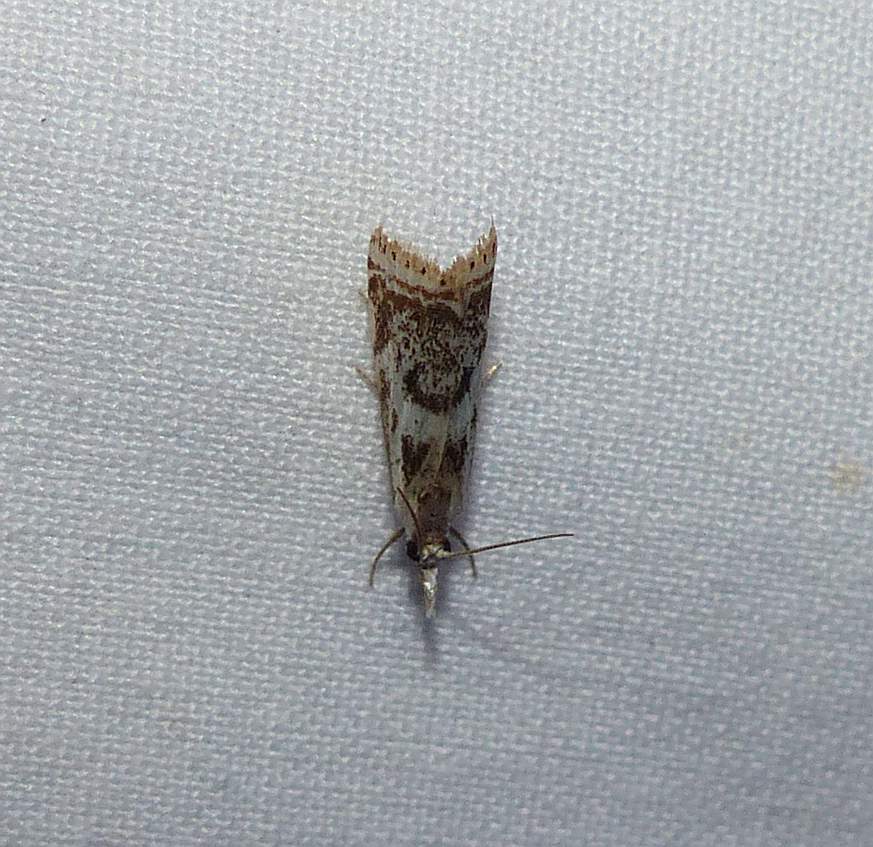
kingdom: Animalia
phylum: Arthropoda
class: Insecta
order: Lepidoptera
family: Crambidae
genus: Microcrambus
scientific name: Microcrambus elegans
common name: Elegant grass-veneer
